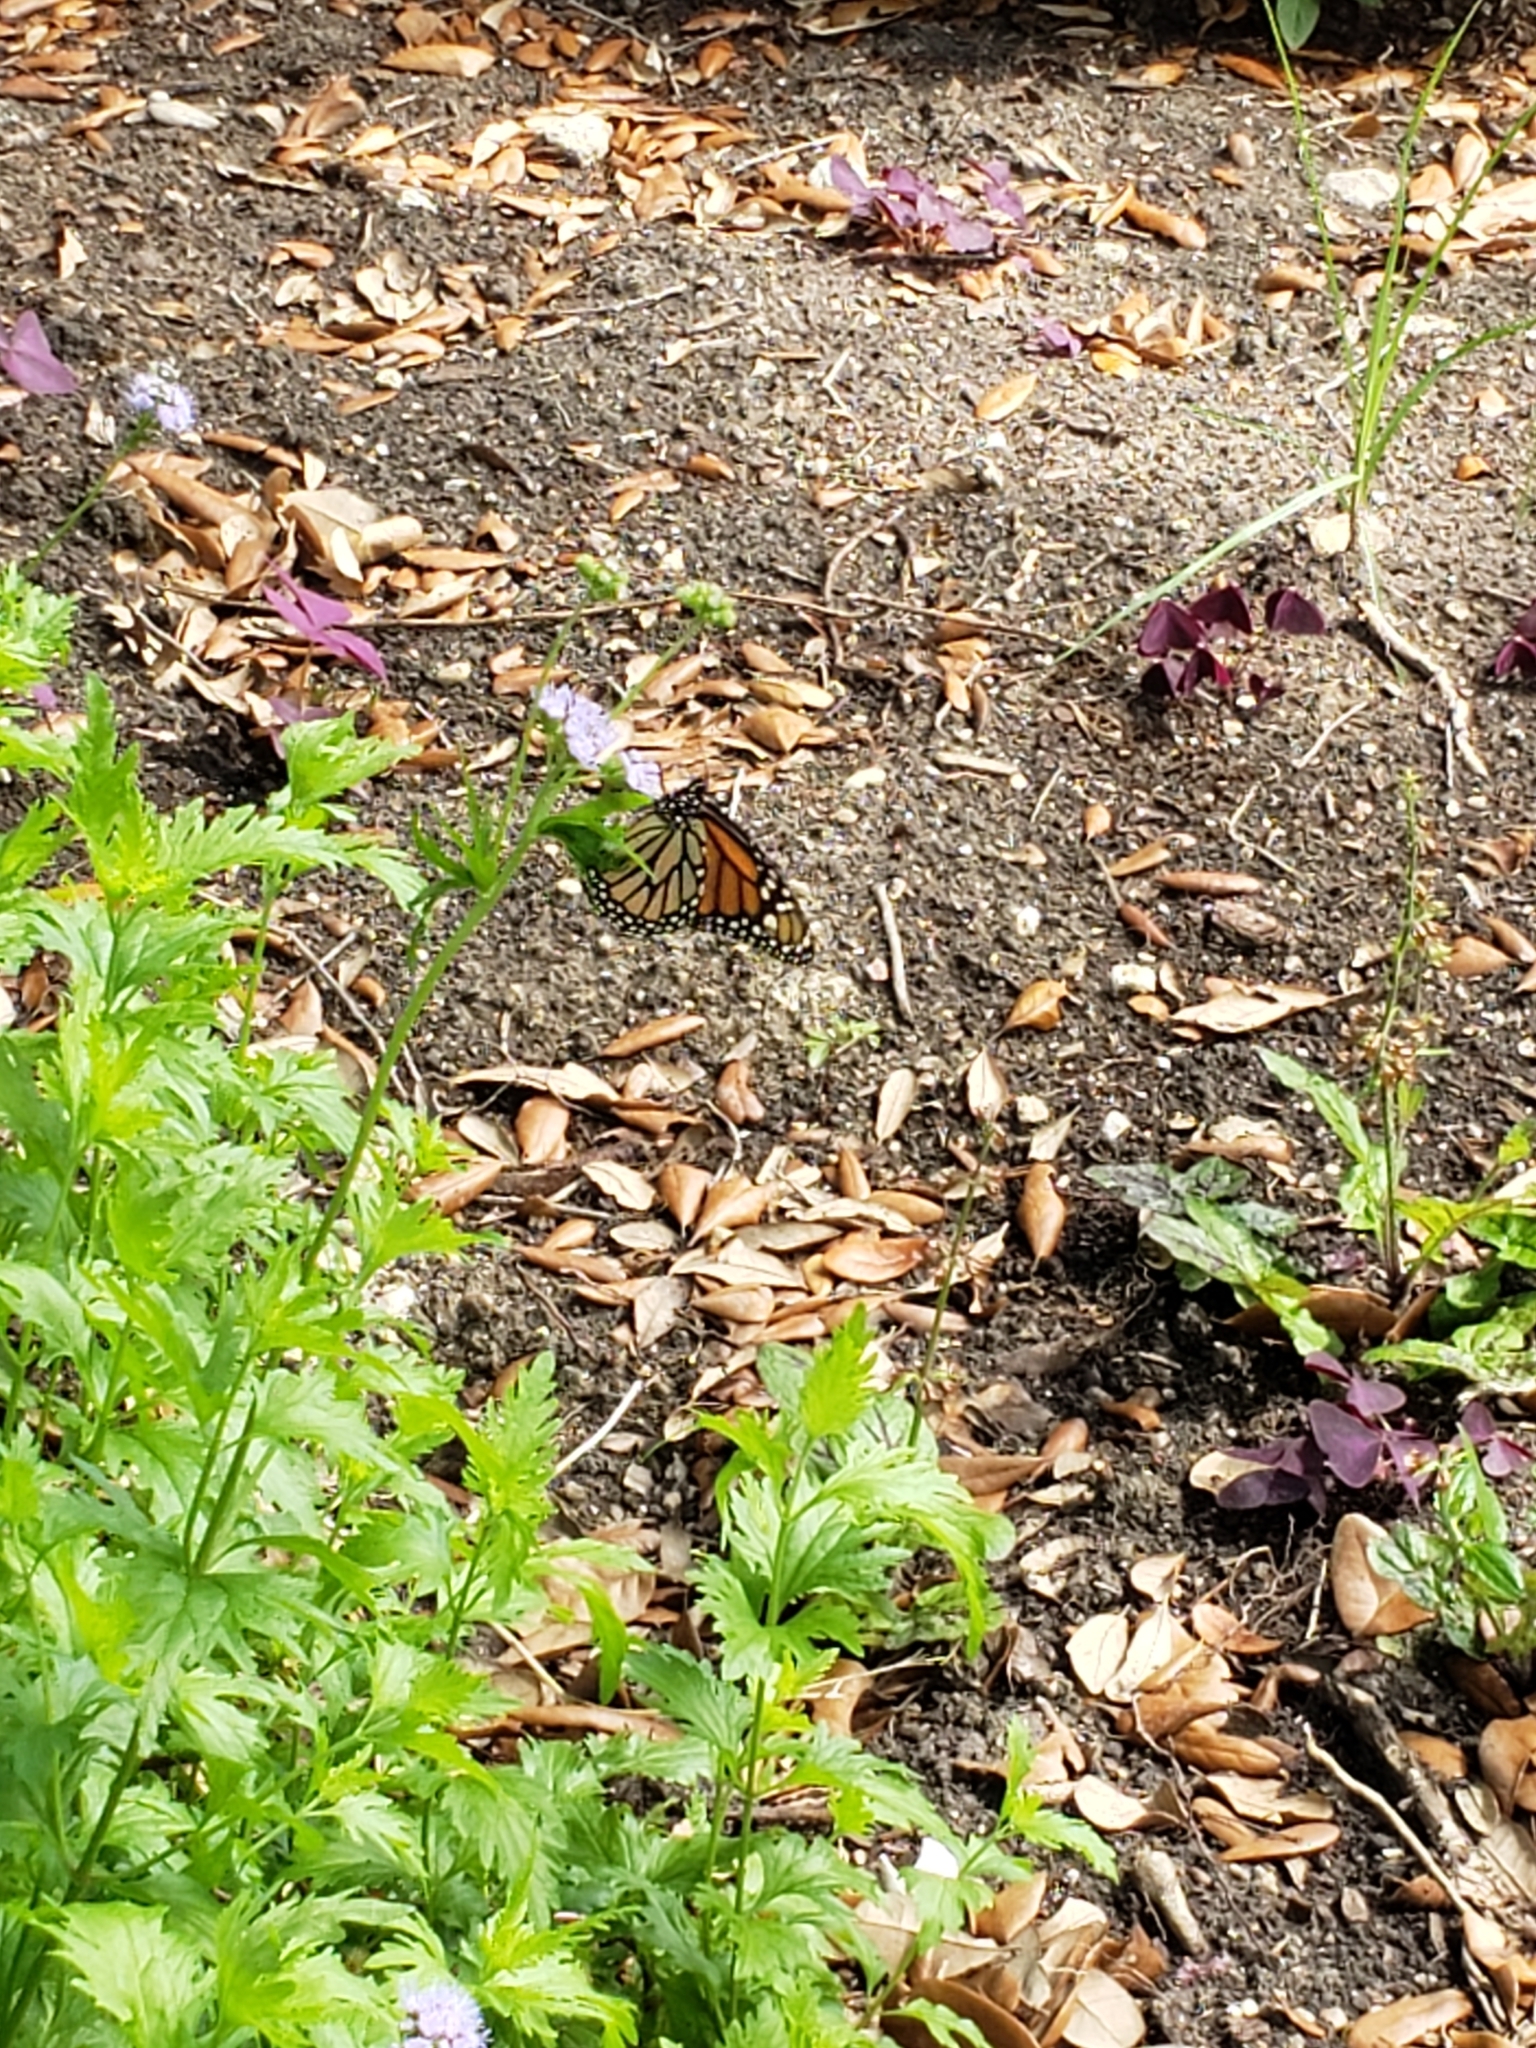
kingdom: Animalia
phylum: Arthropoda
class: Insecta
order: Lepidoptera
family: Nymphalidae
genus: Danaus
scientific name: Danaus plexippus
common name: Monarch
